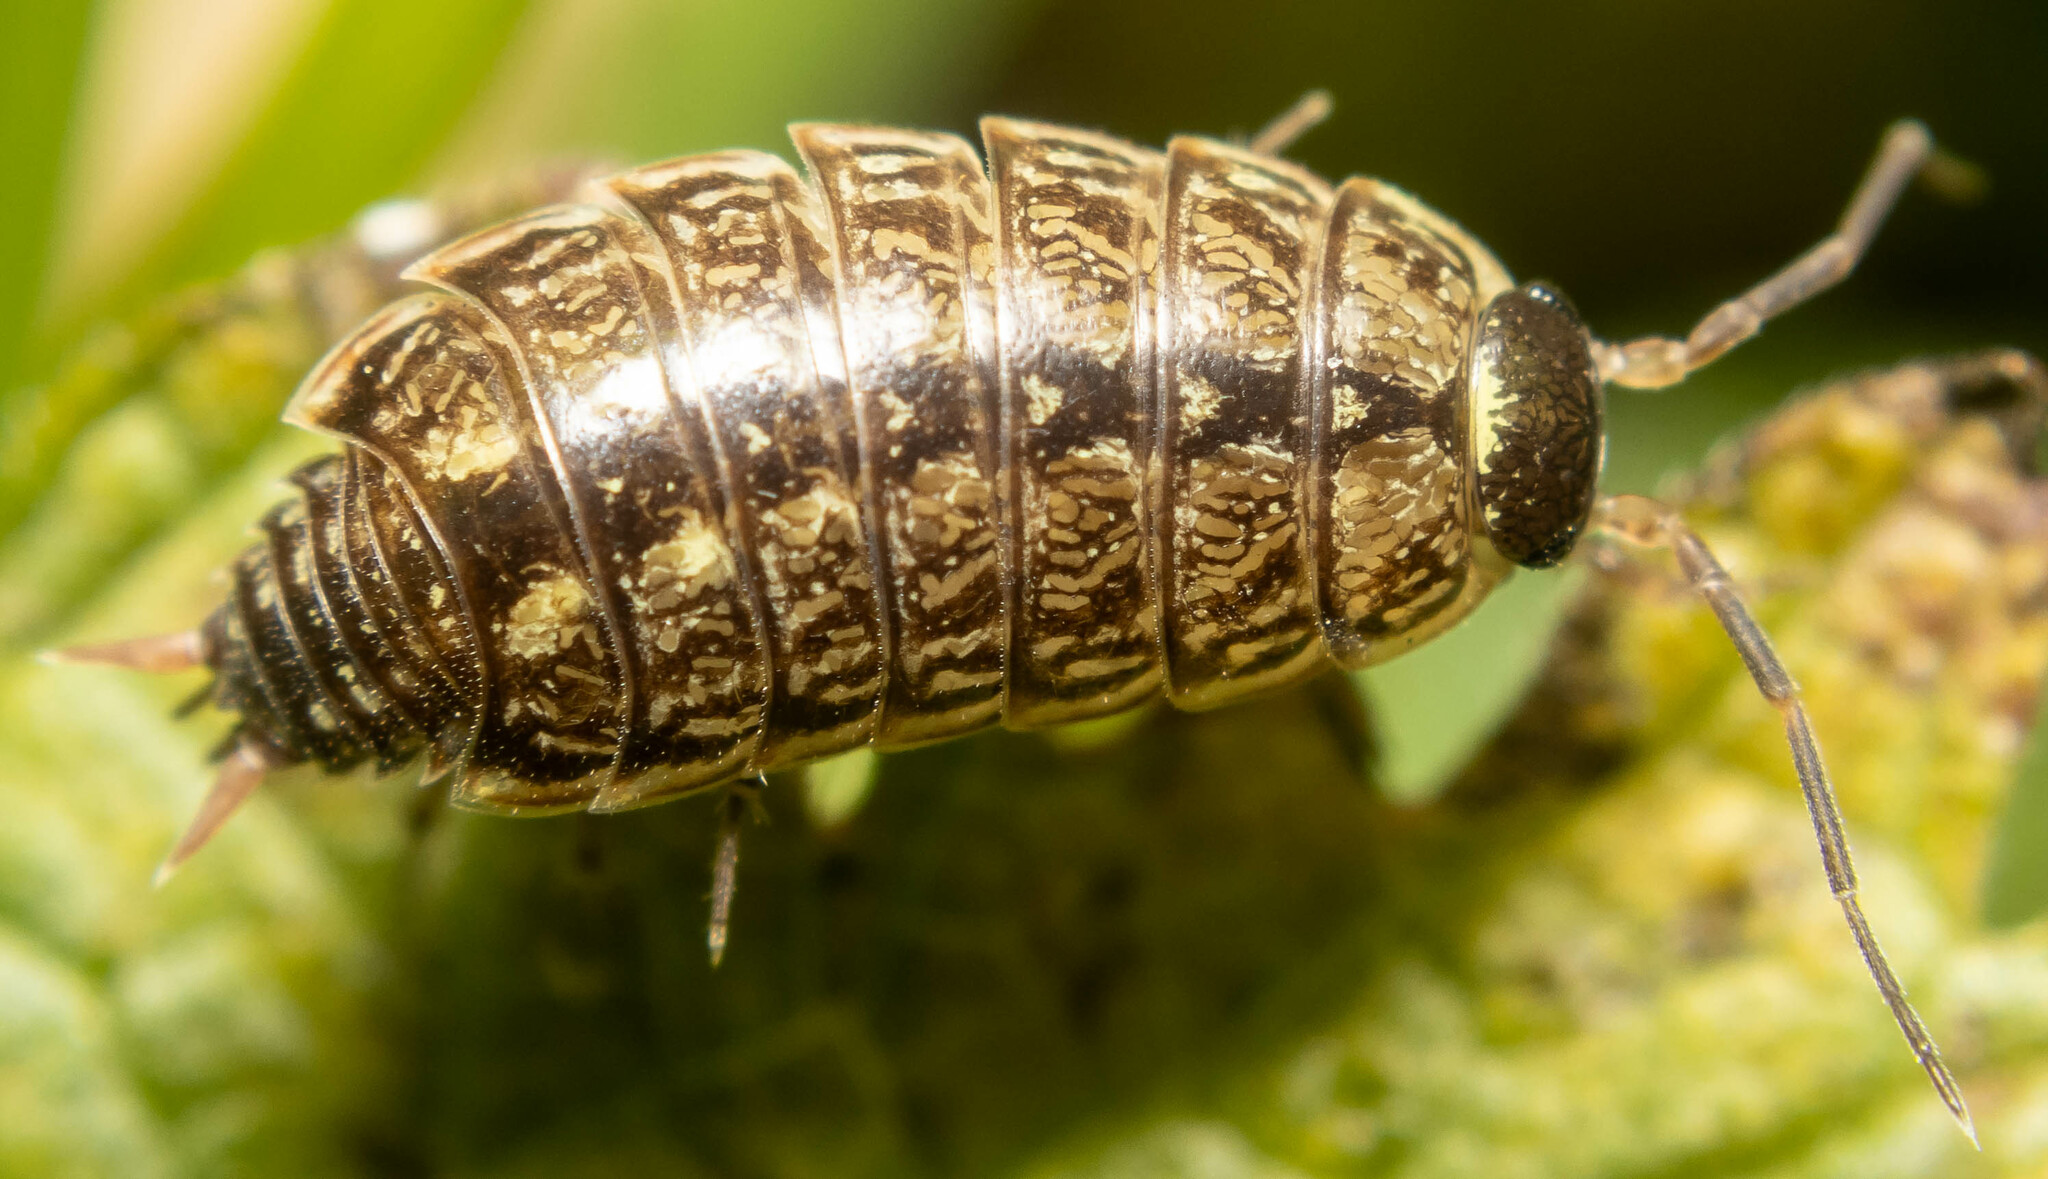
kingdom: Animalia
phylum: Arthropoda
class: Malacostraca
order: Isopoda
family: Philosciidae
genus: Philoscia
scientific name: Philoscia muscorum
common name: Common striped woodlouse
